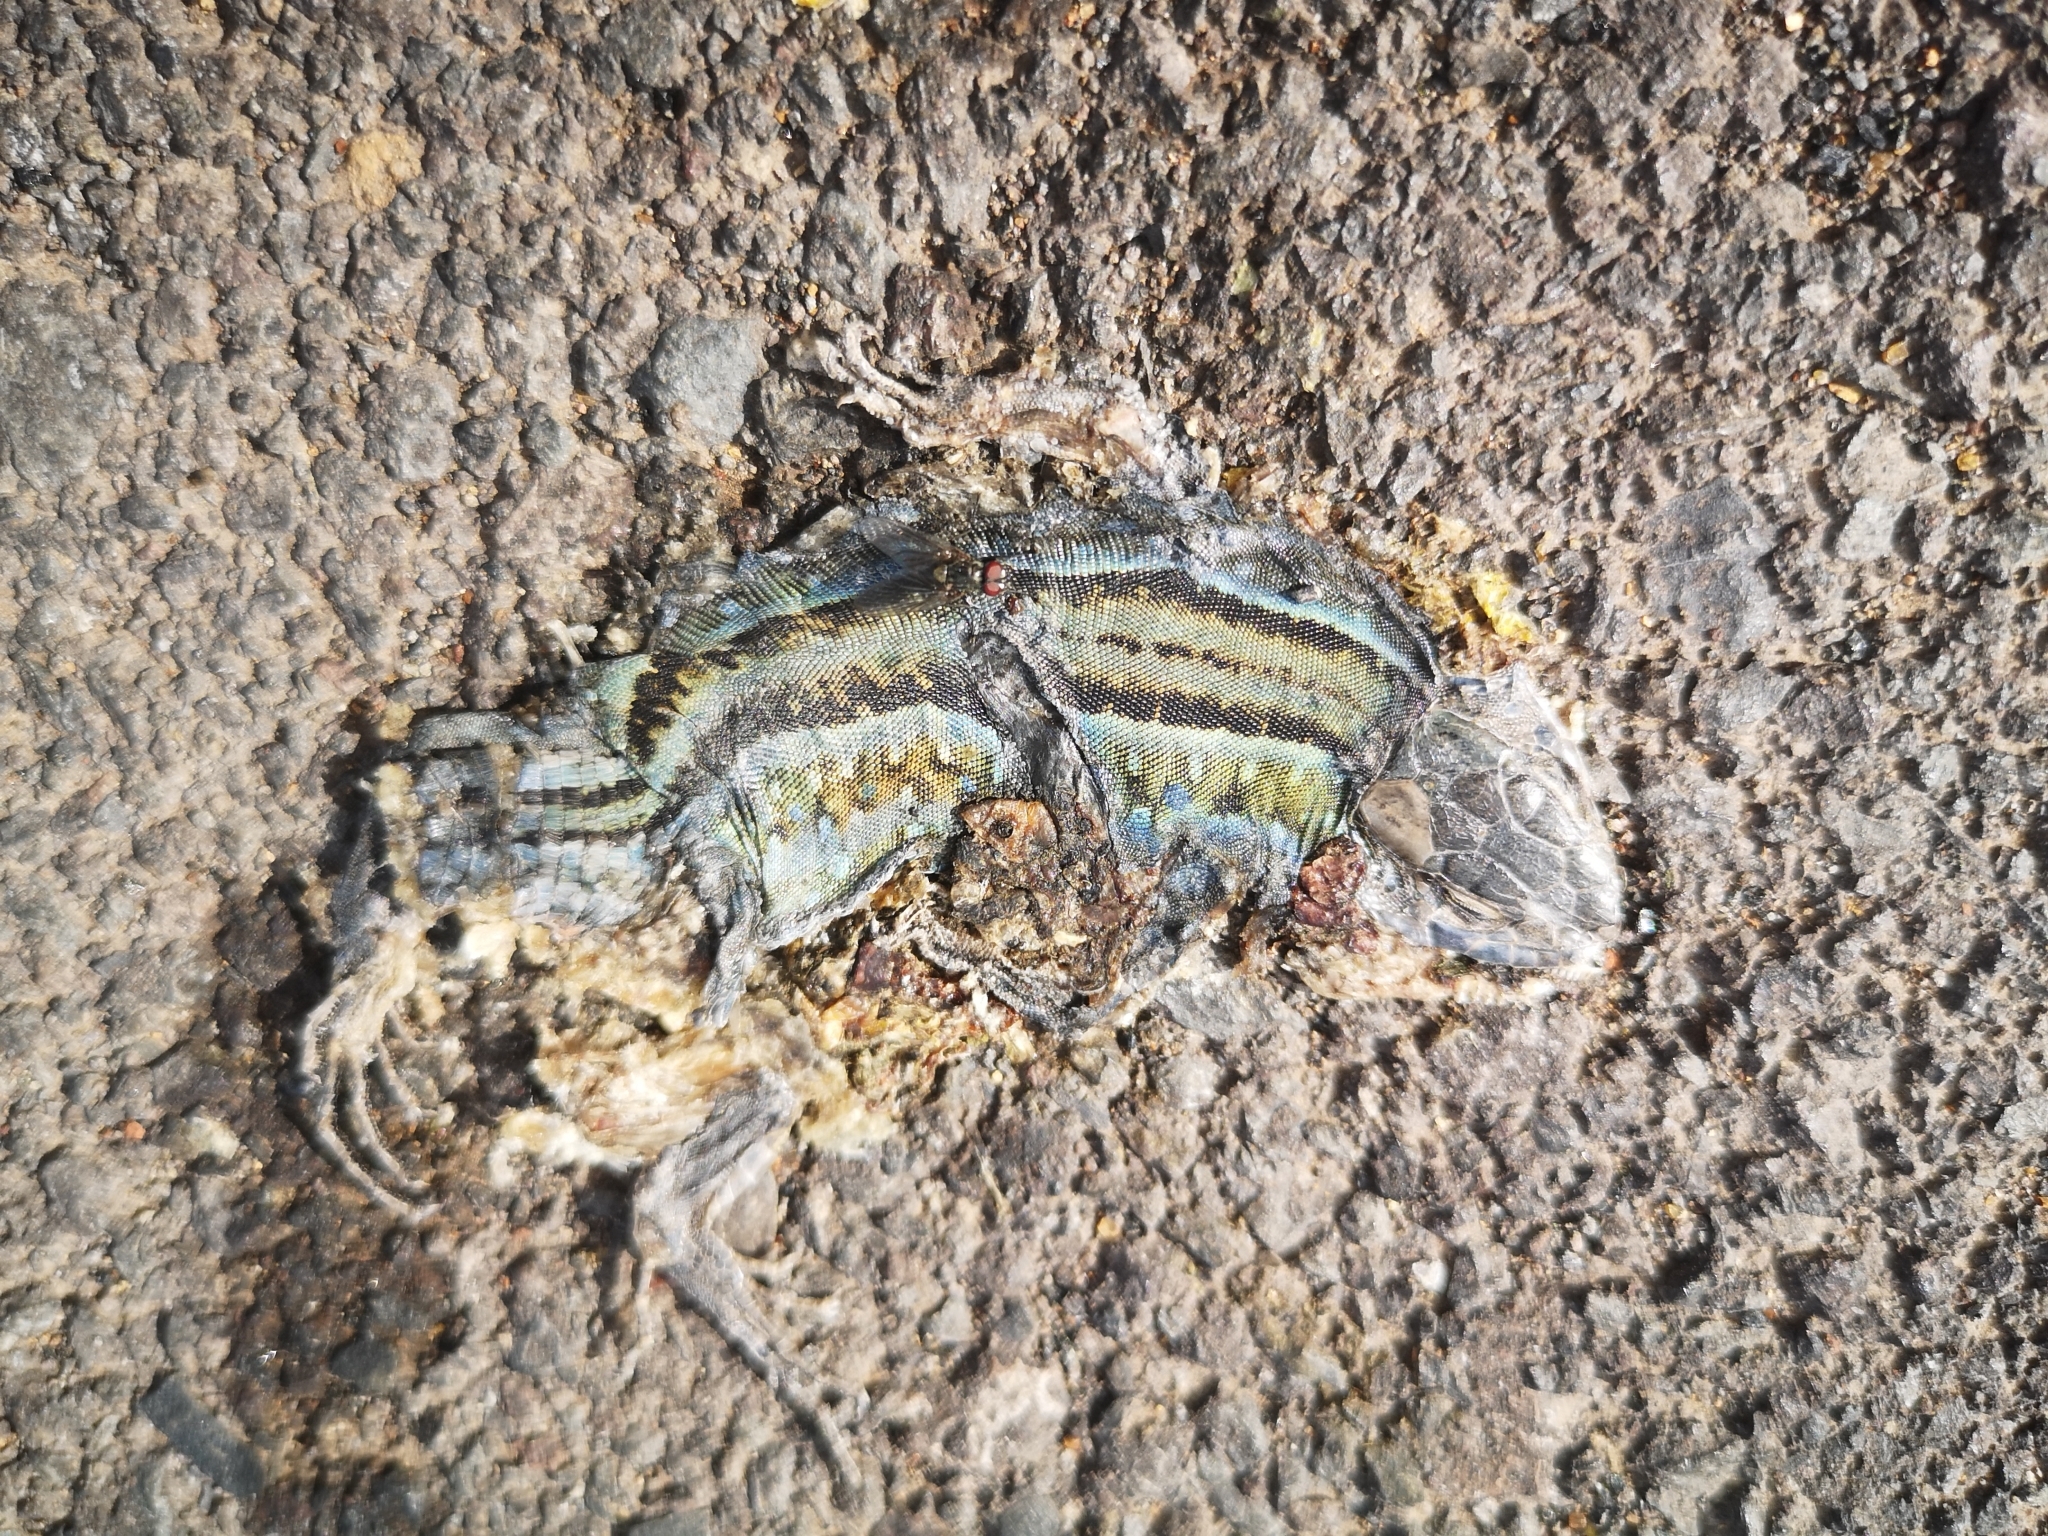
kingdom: Animalia
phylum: Chordata
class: Squamata
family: Lacertidae
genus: Gallotia
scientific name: Gallotia galloti
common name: Gallot's lizard
